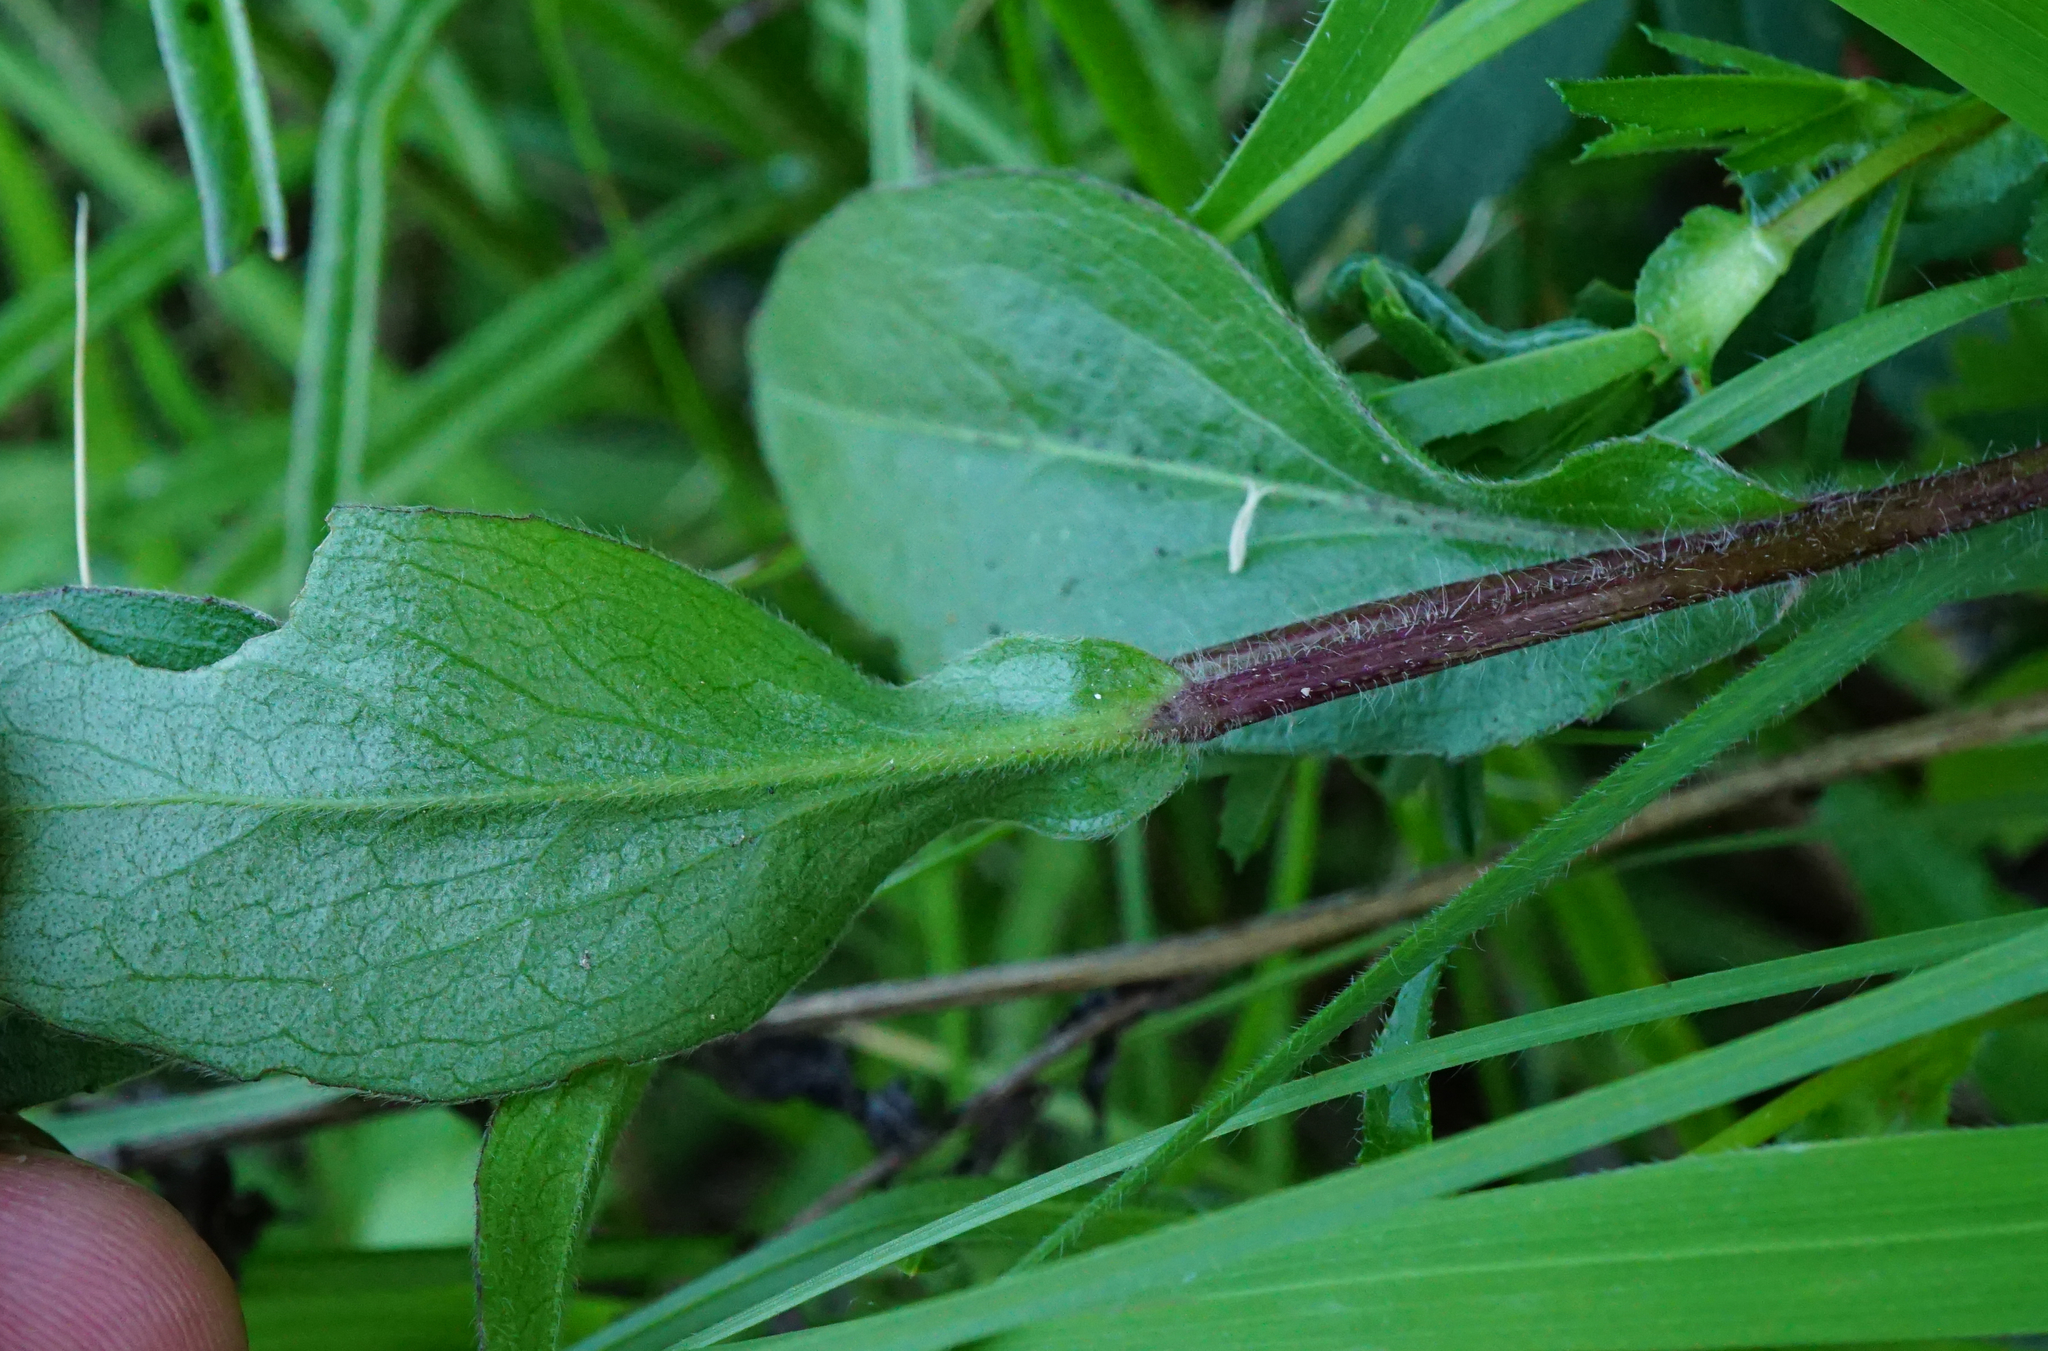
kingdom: Plantae
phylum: Tracheophyta
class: Magnoliopsida
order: Asterales
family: Asteraceae
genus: Buphthalmum
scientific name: Buphthalmum salicifolium
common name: Willow-leaved yellow-oxeye
